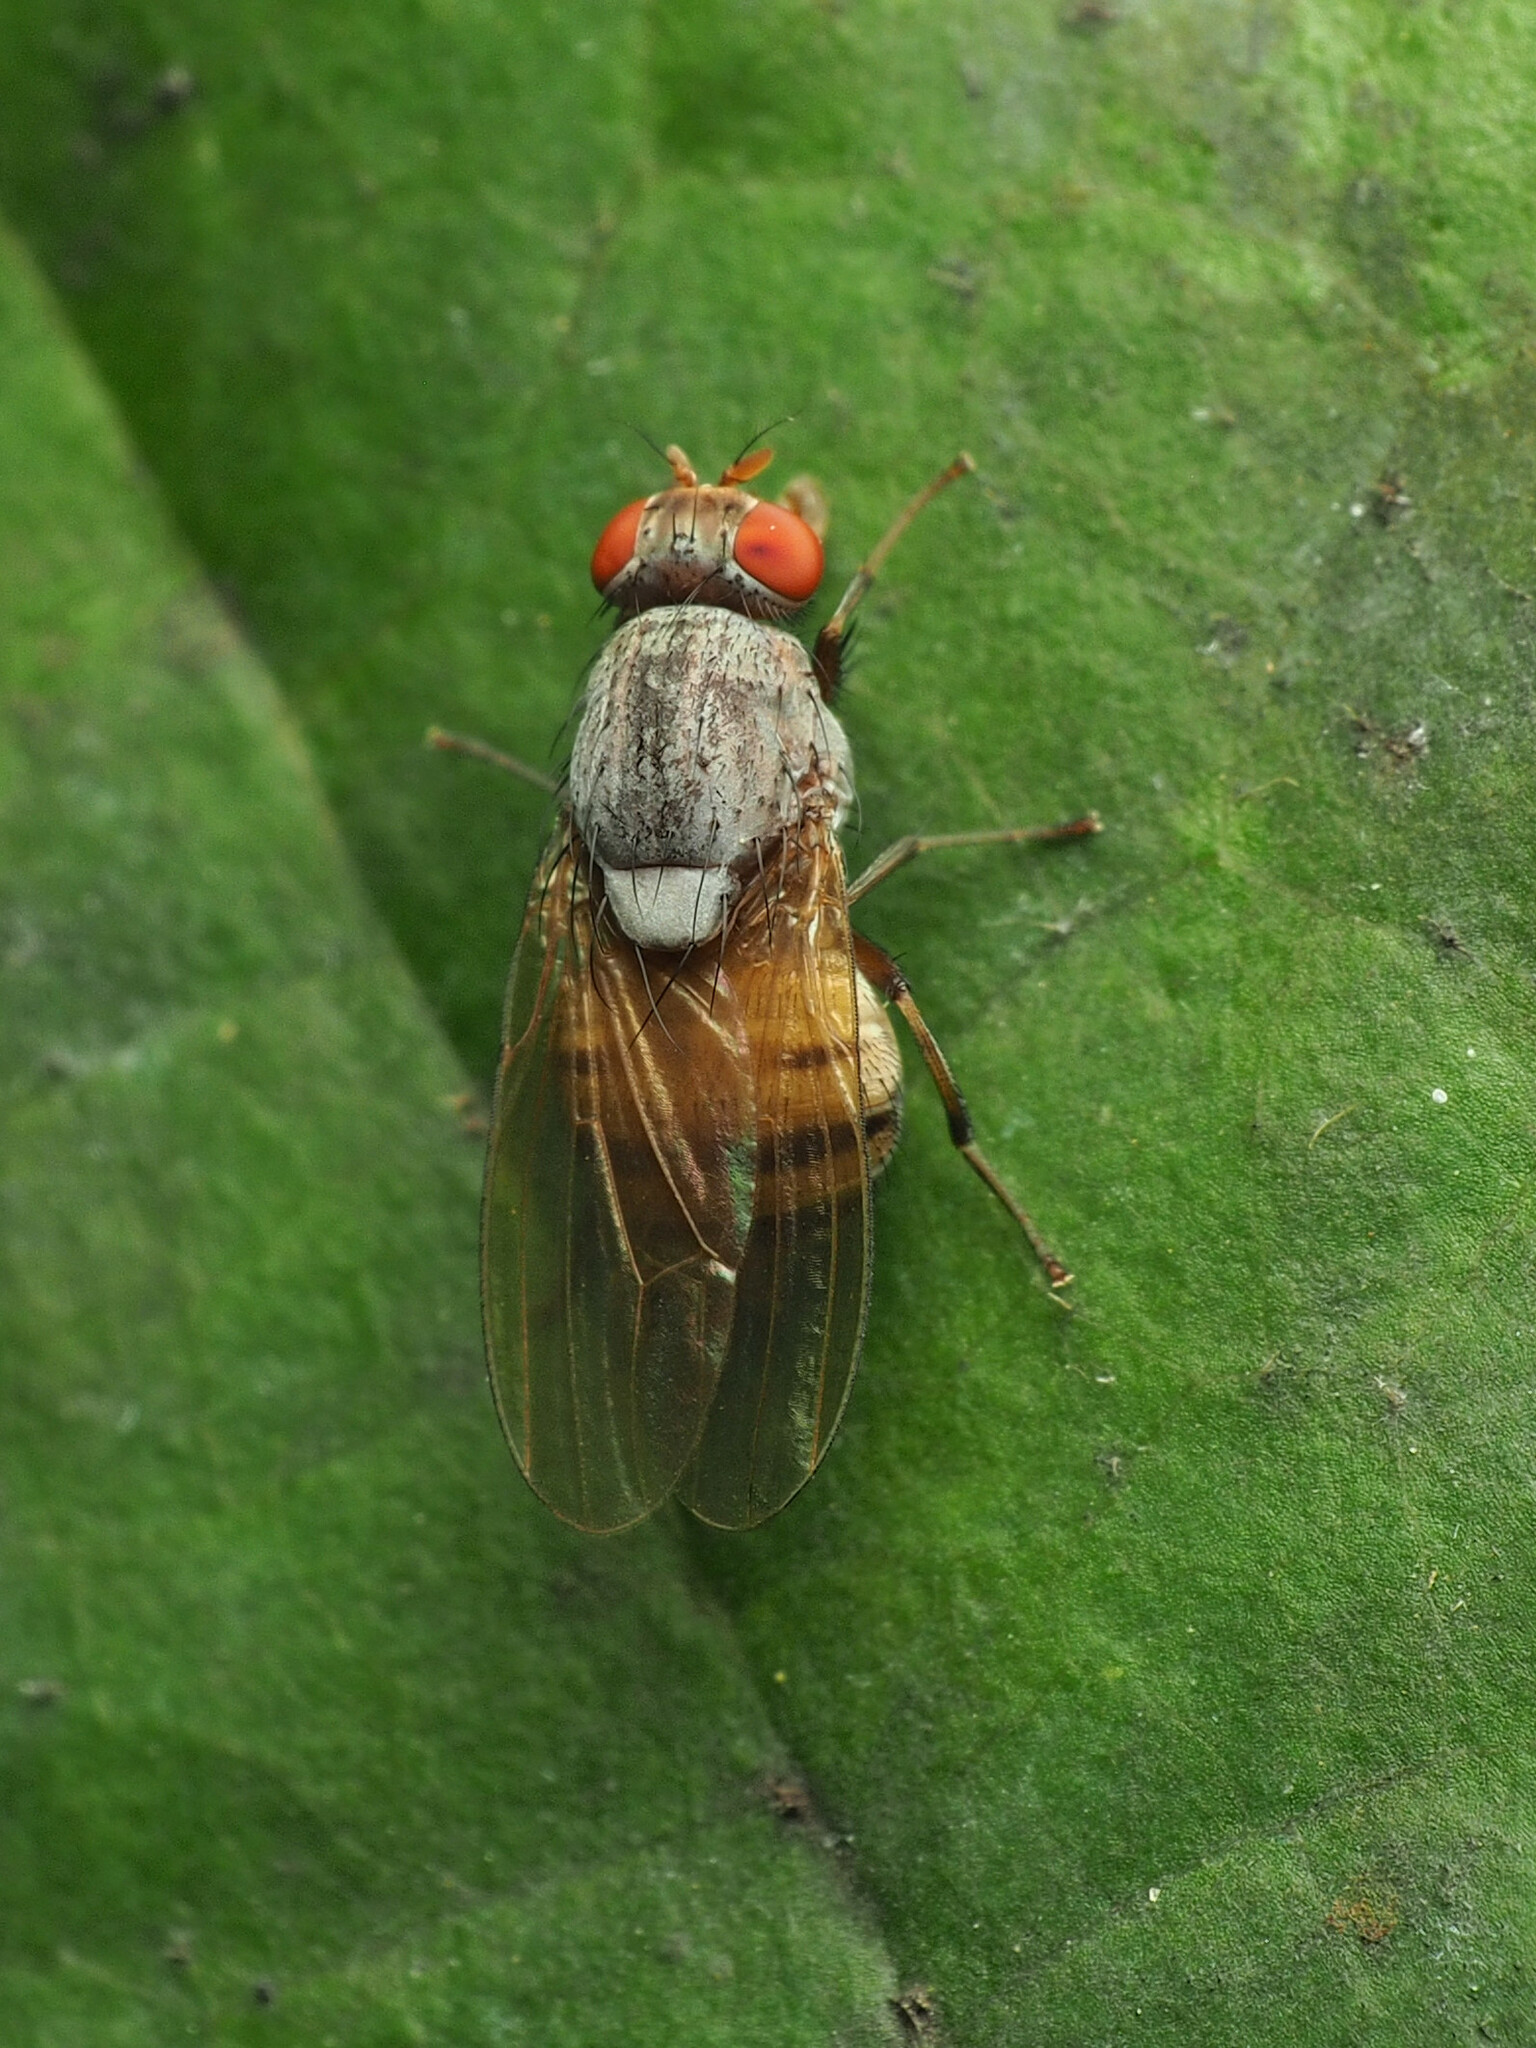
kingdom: Animalia
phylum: Arthropoda
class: Insecta
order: Diptera
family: Lauxaniidae
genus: Minettia
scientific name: Minettia magna
